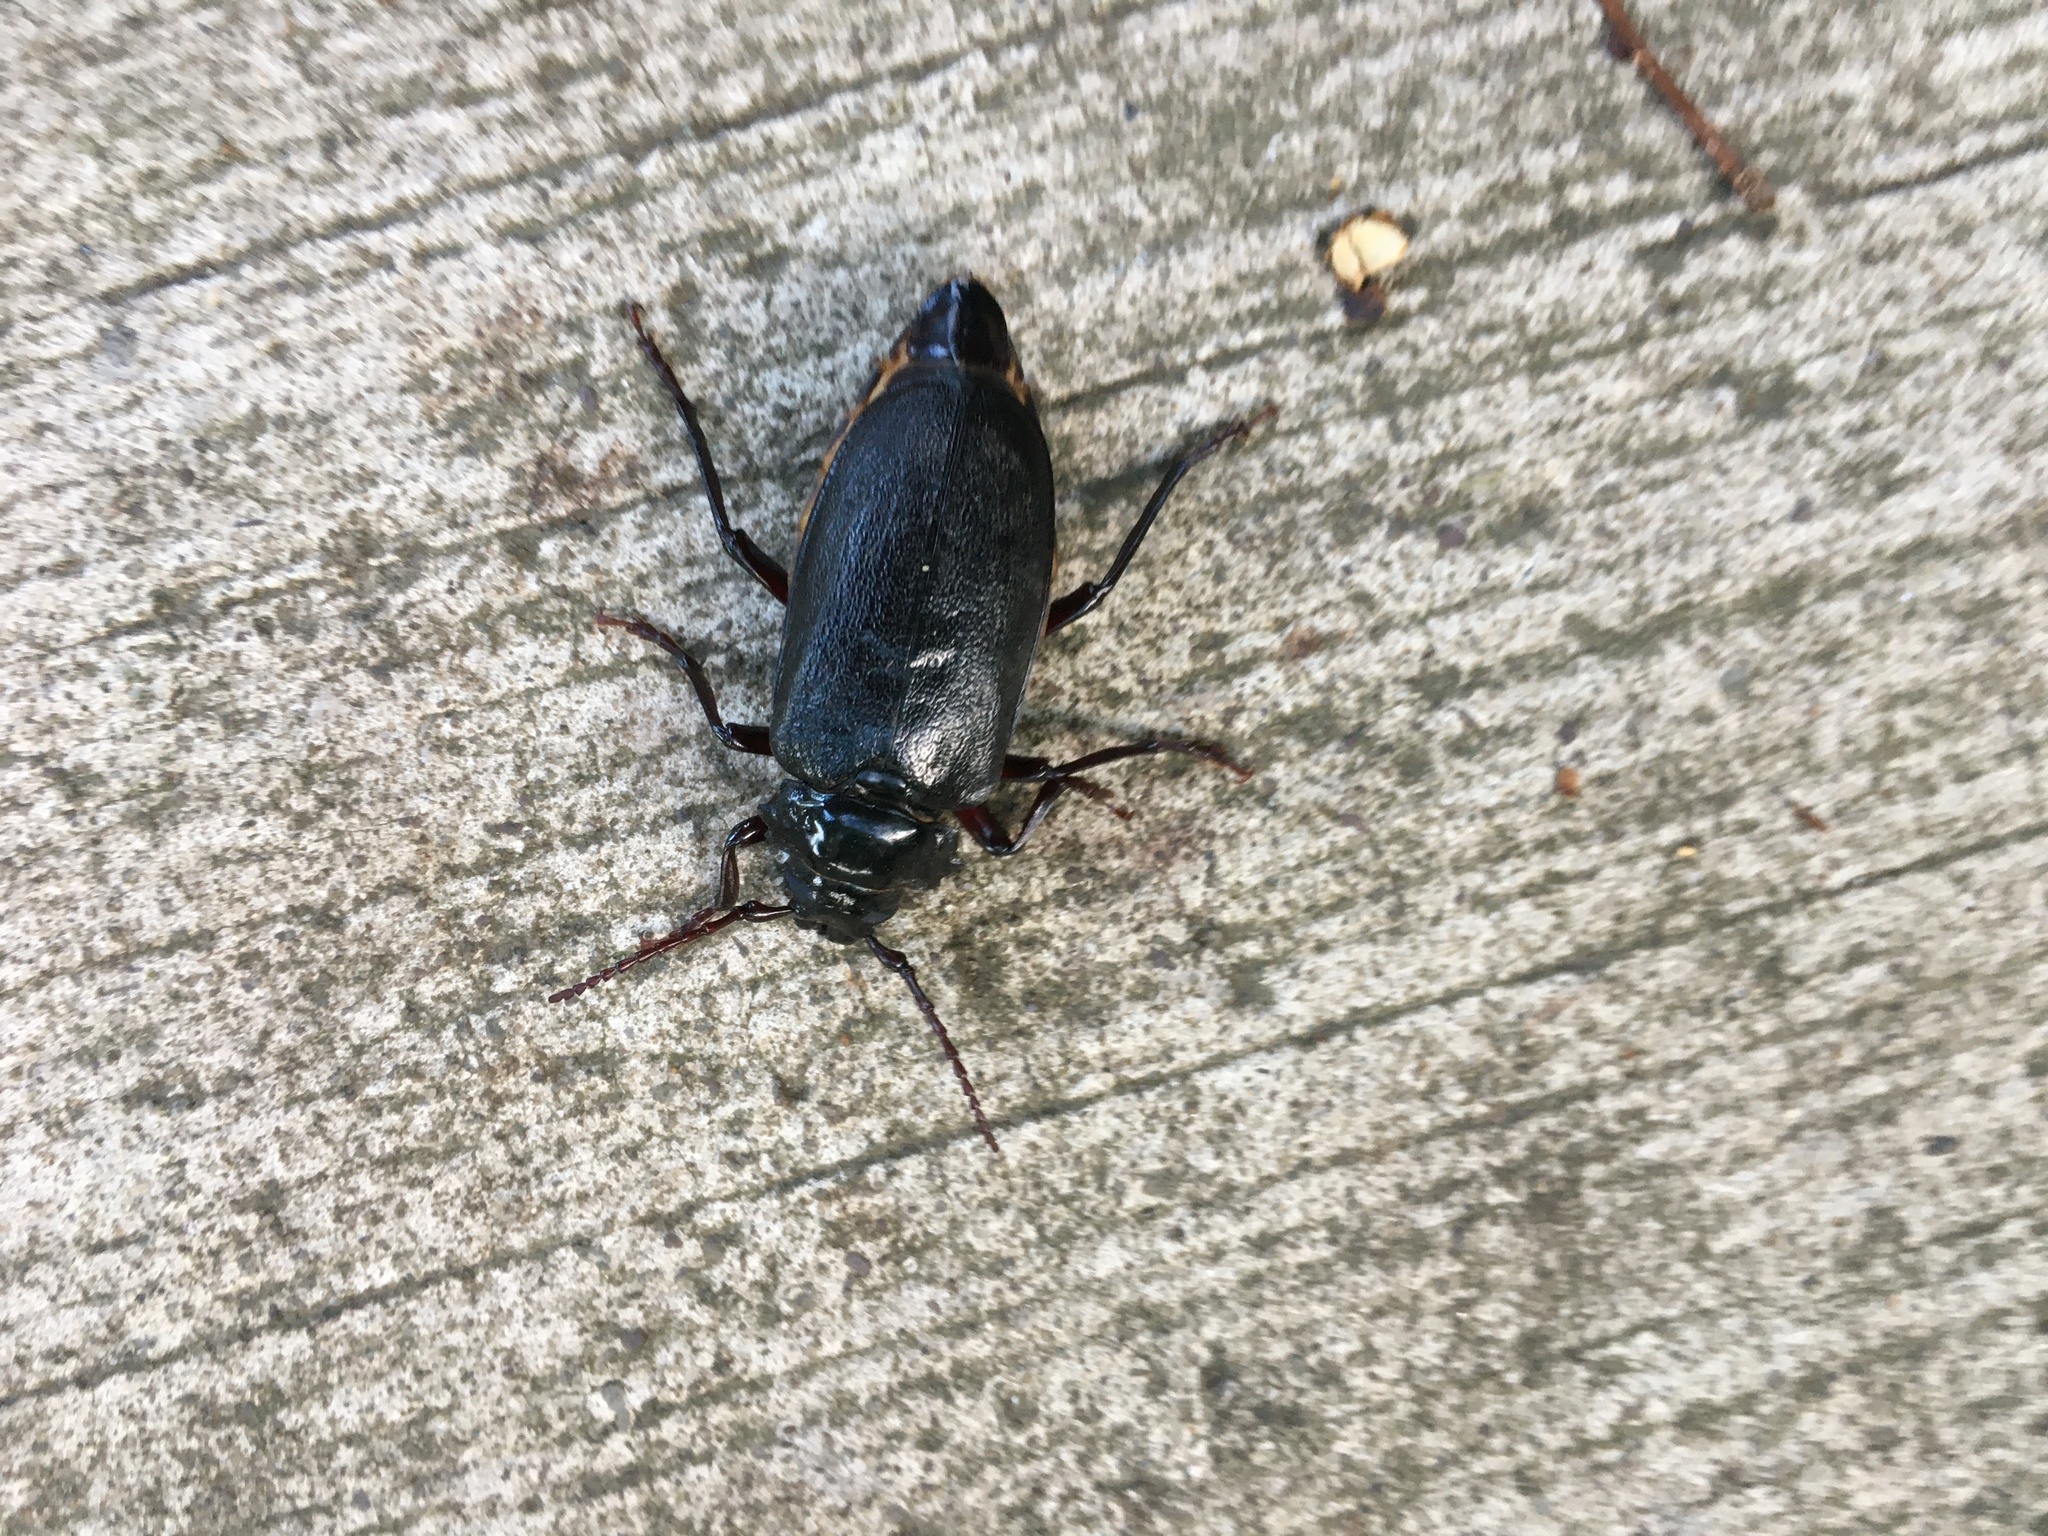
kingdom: Animalia
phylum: Arthropoda
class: Insecta
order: Coleoptera
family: Cerambycidae
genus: Prionus
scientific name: Prionus laticollis
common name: Broad necked prionus
